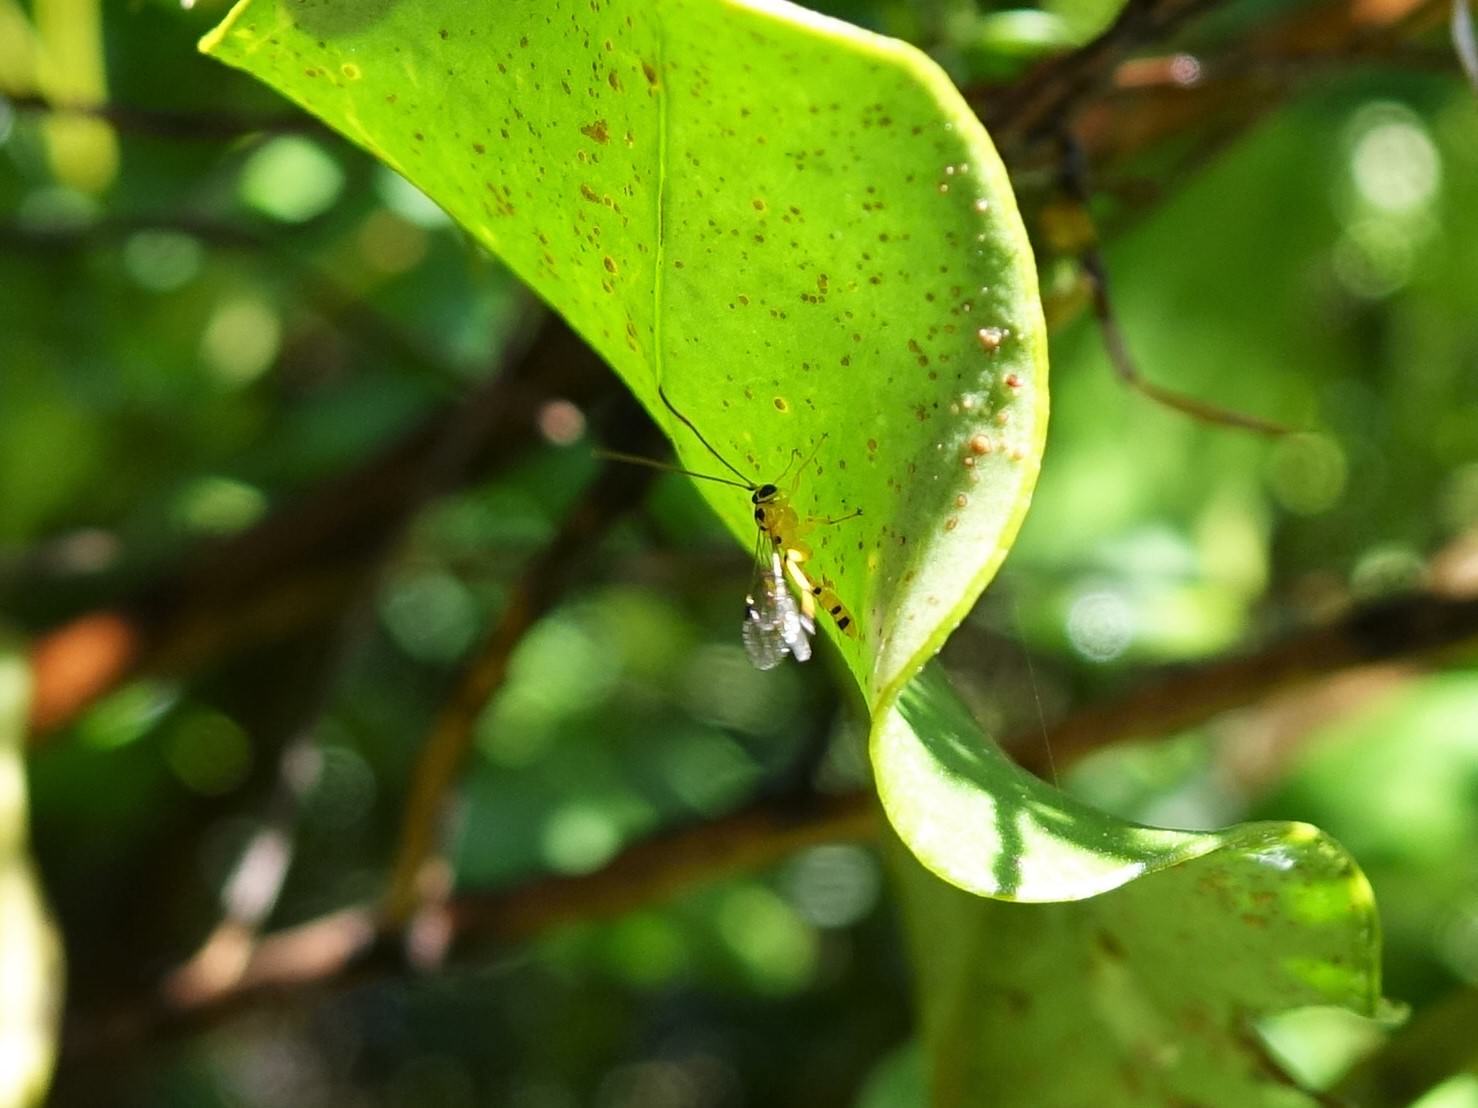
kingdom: Animalia
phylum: Arthropoda
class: Insecta
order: Hymenoptera
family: Ichneumonidae
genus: Xanthopimpla
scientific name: Xanthopimpla rhopaloceros
